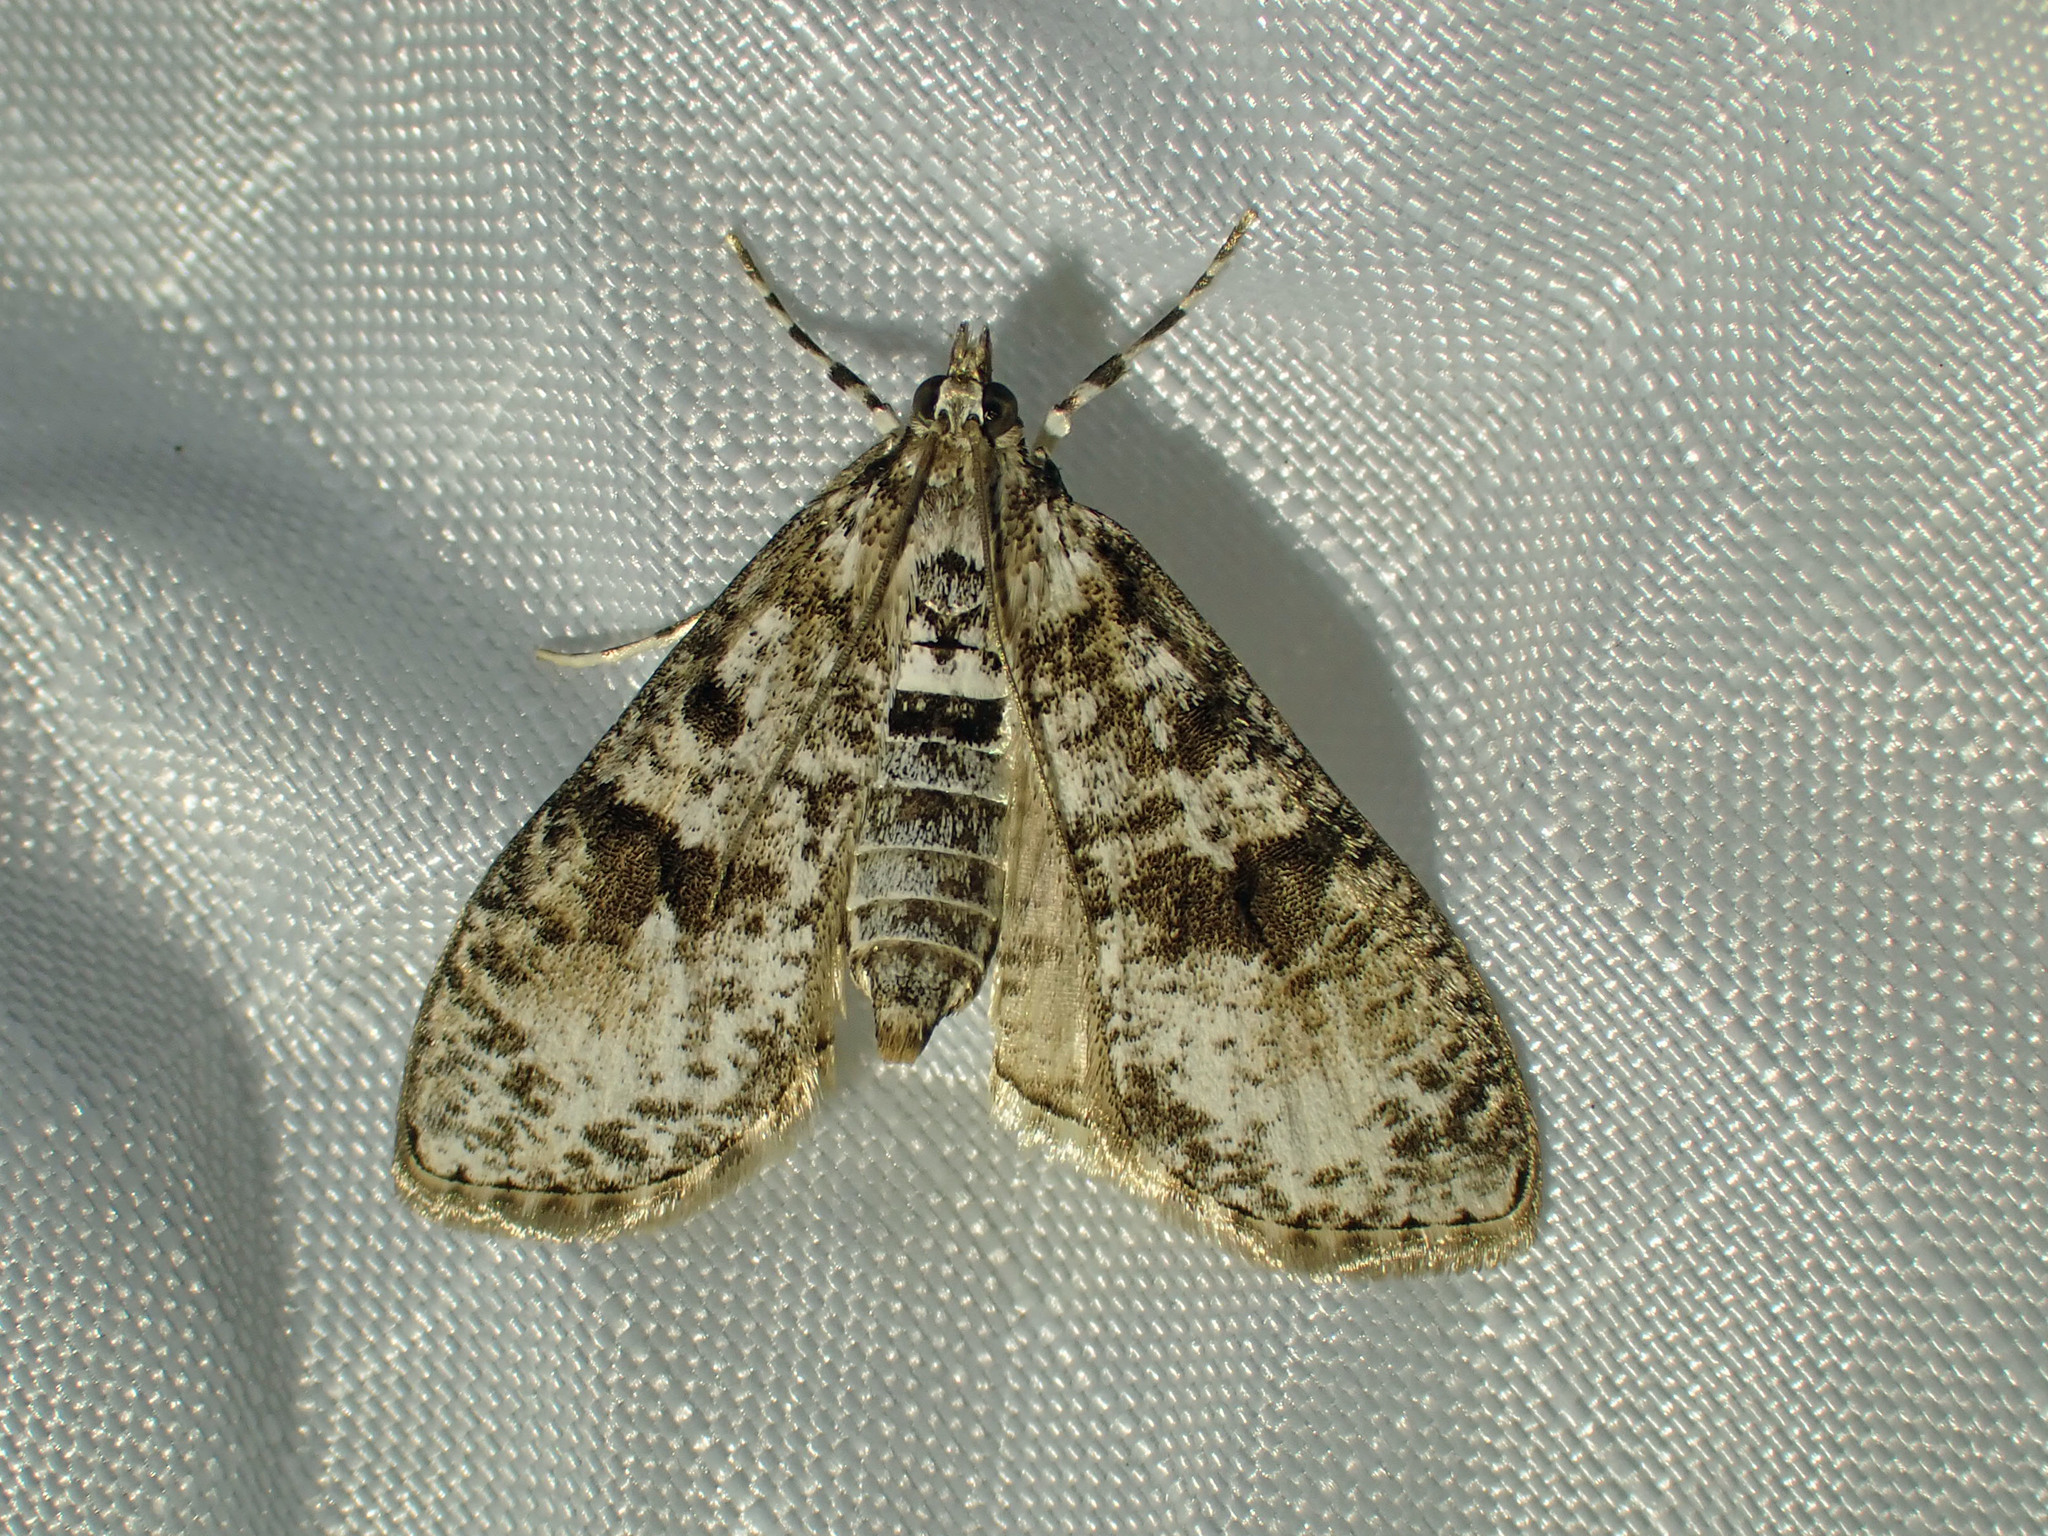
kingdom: Animalia
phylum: Arthropoda
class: Insecta
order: Lepidoptera
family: Crambidae
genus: Palpita
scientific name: Palpita magniferalis
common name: Splendid palpita moth
